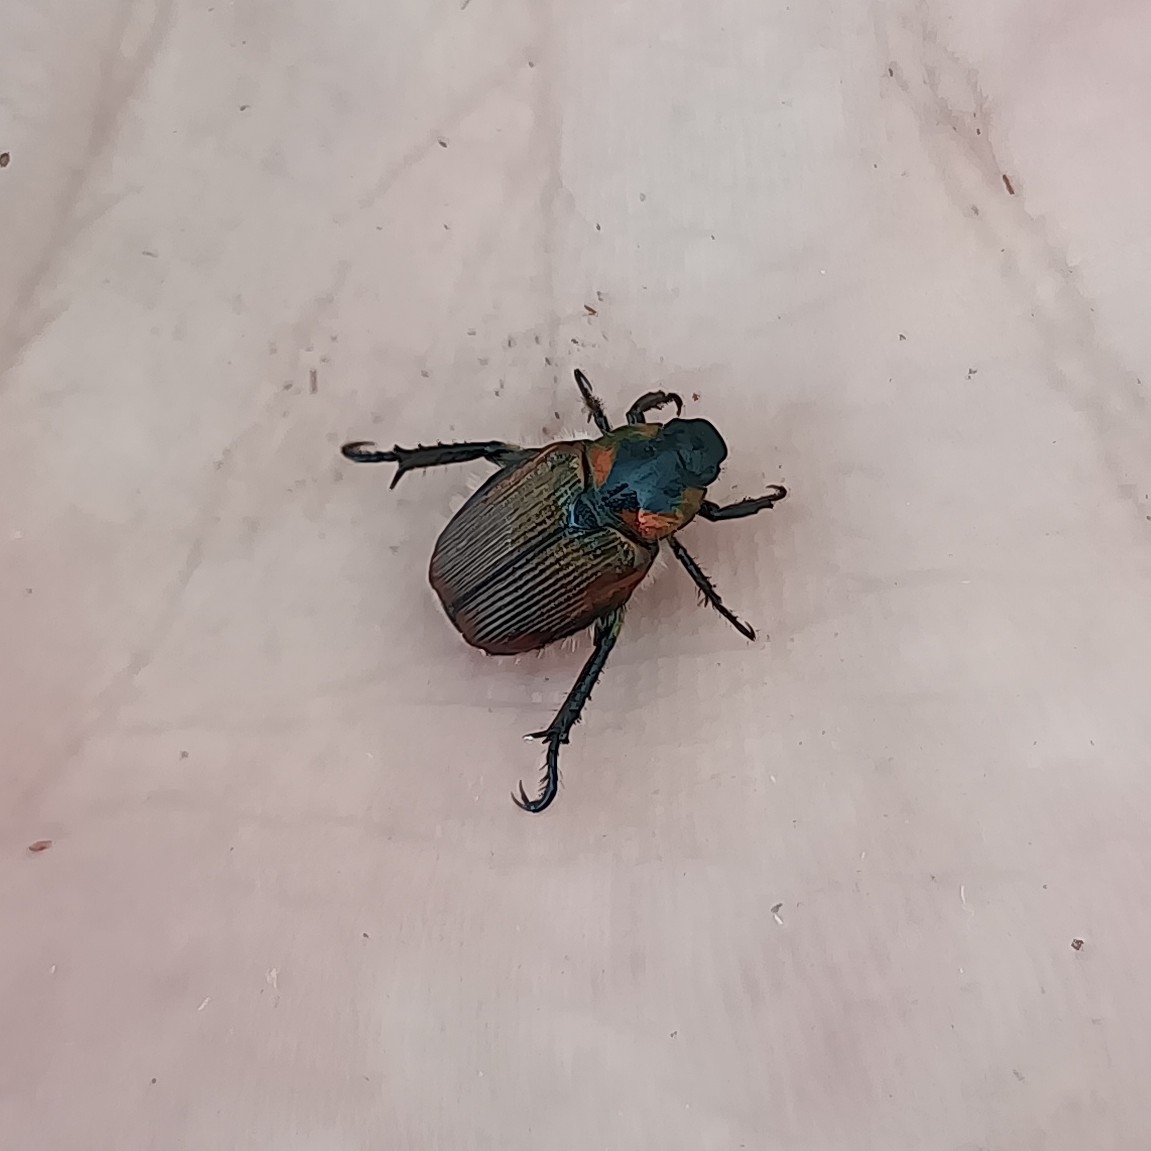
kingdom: Animalia
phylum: Arthropoda
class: Insecta
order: Coleoptera
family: Scarabaeidae
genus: Strigoderma
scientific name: Strigoderma sulcipennis
